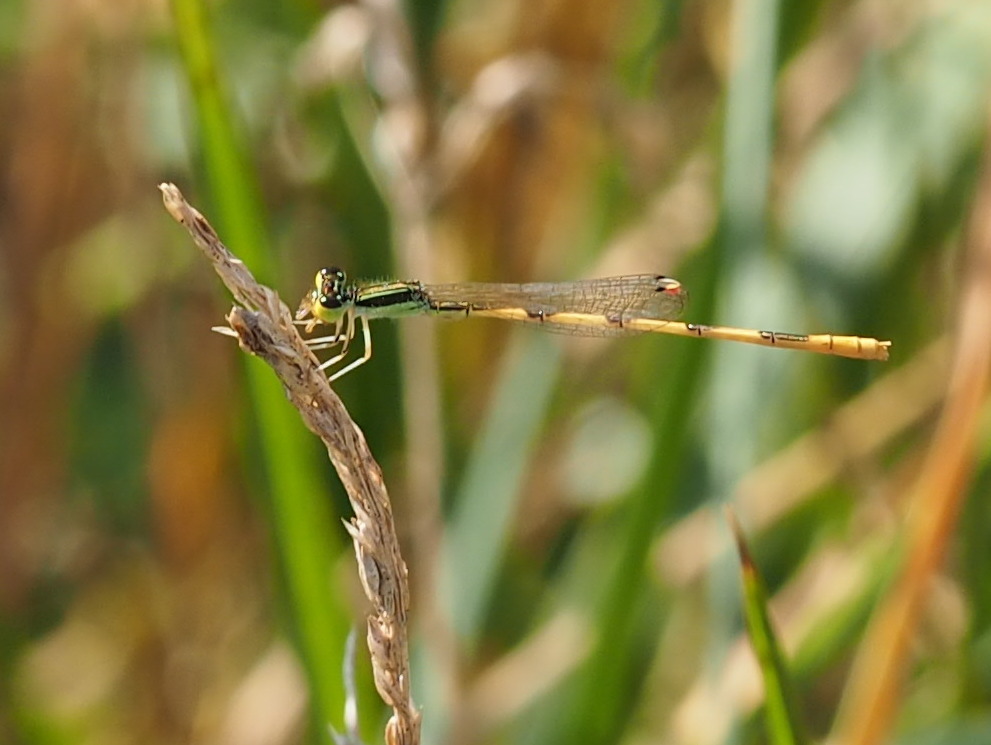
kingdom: Animalia
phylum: Arthropoda
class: Insecta
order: Odonata
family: Coenagrionidae
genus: Ischnura
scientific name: Ischnura hastata
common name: Citrine forktail
